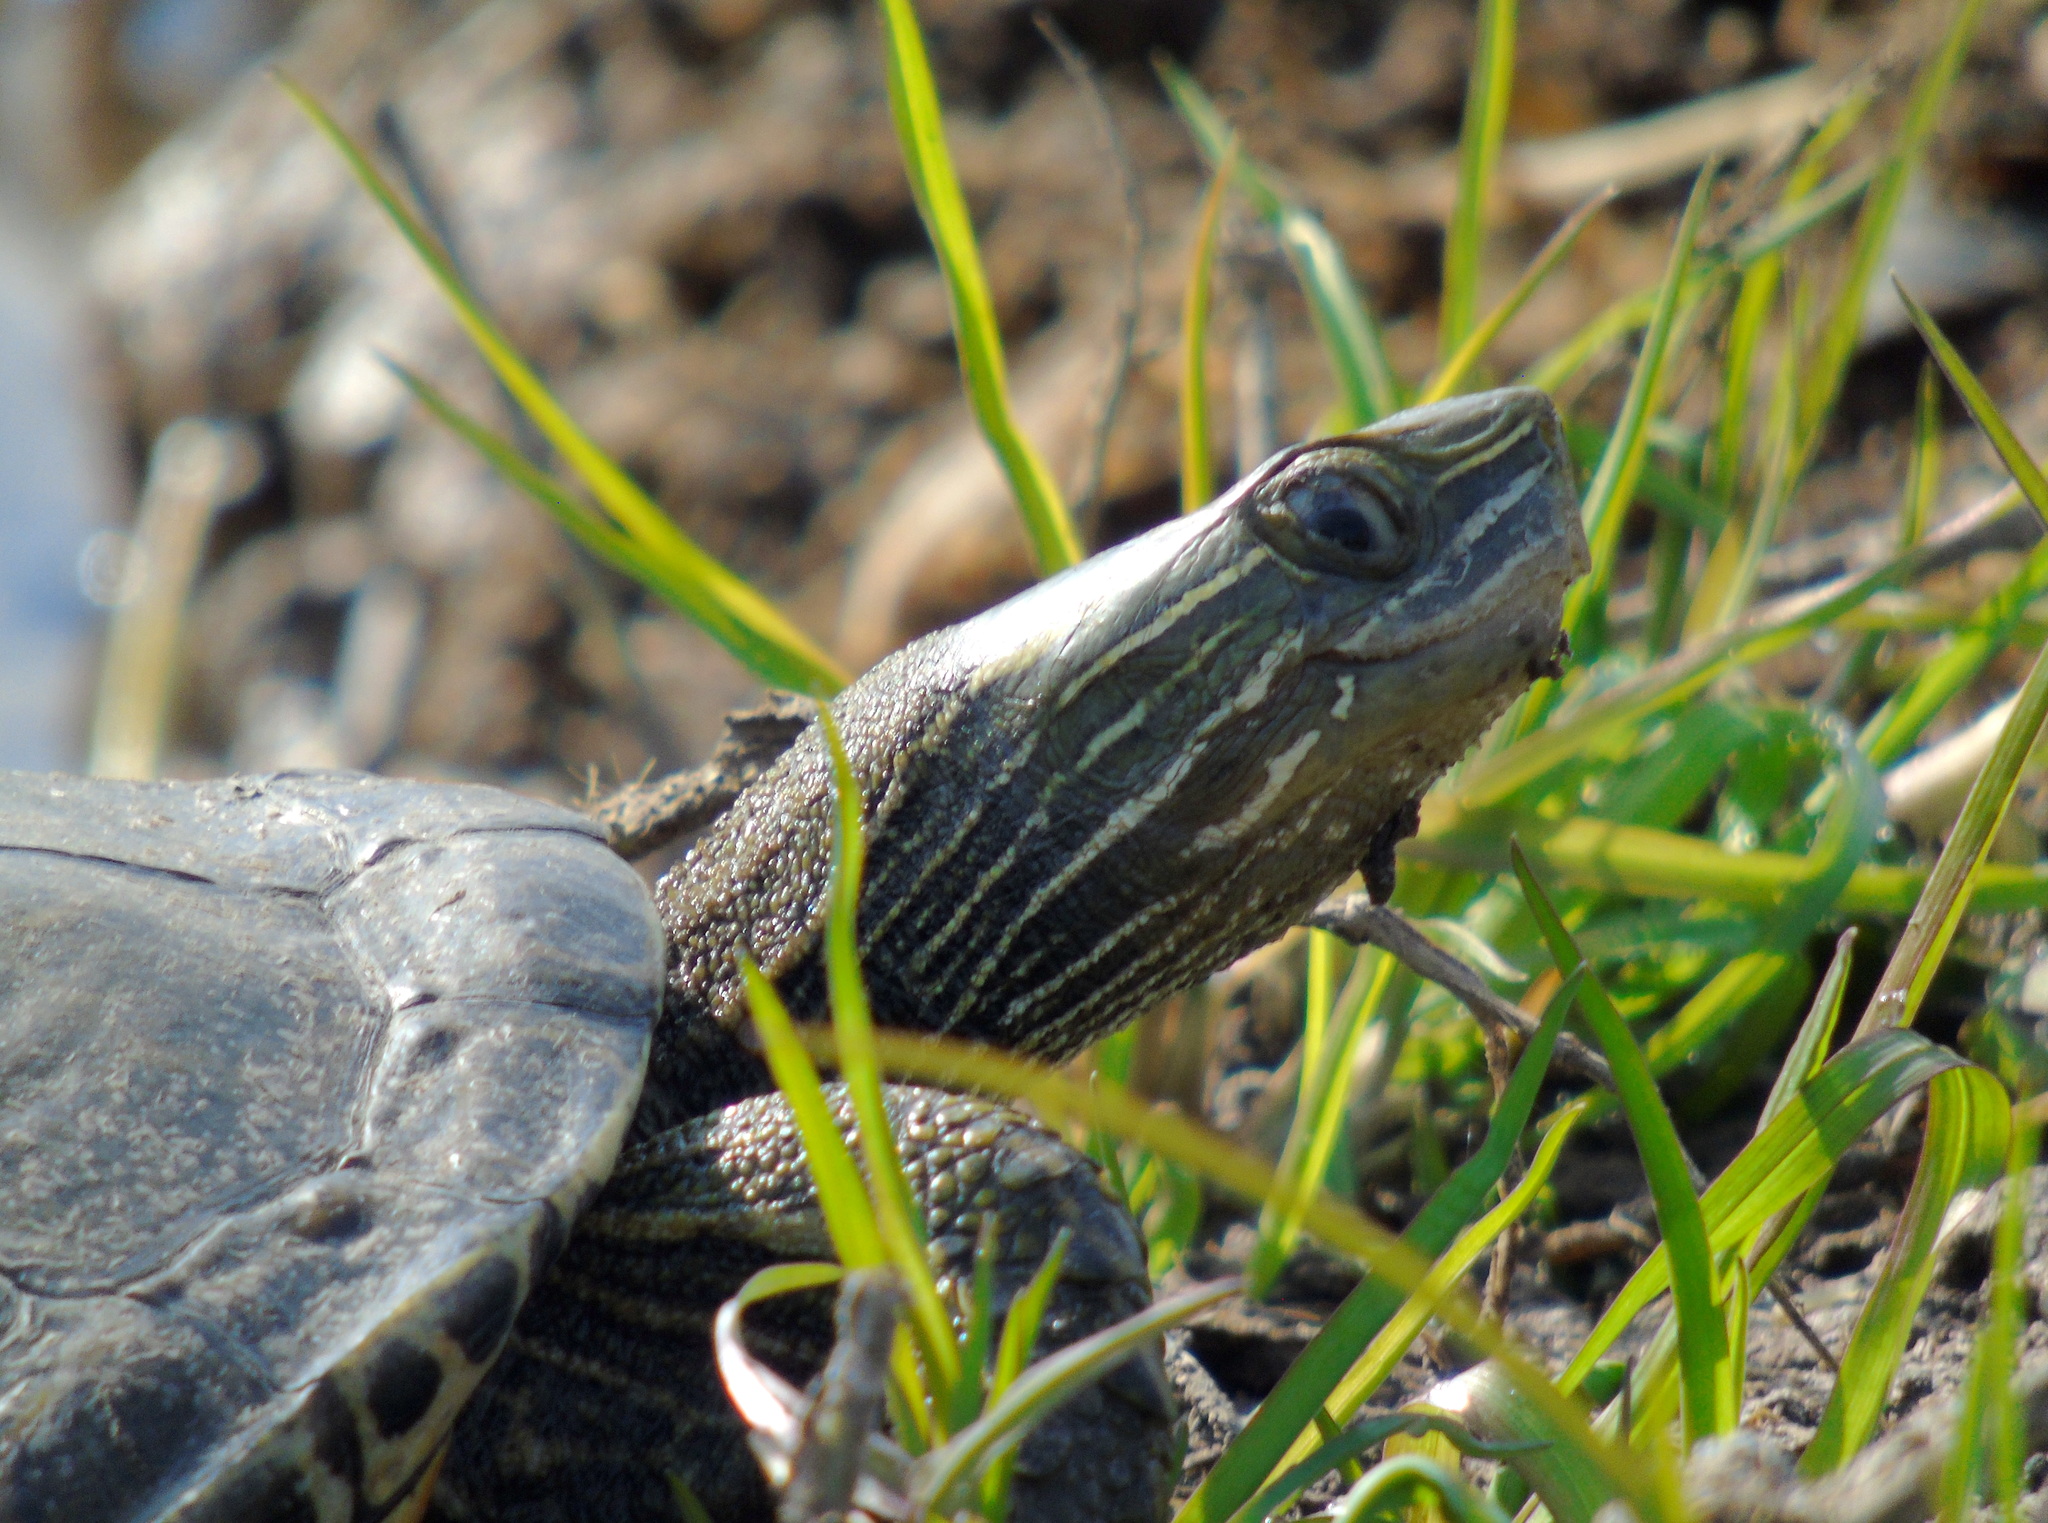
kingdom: Animalia
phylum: Chordata
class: Testudines
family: Geoemydidae
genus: Mauremys
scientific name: Mauremys caspica
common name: Caspian turtle
